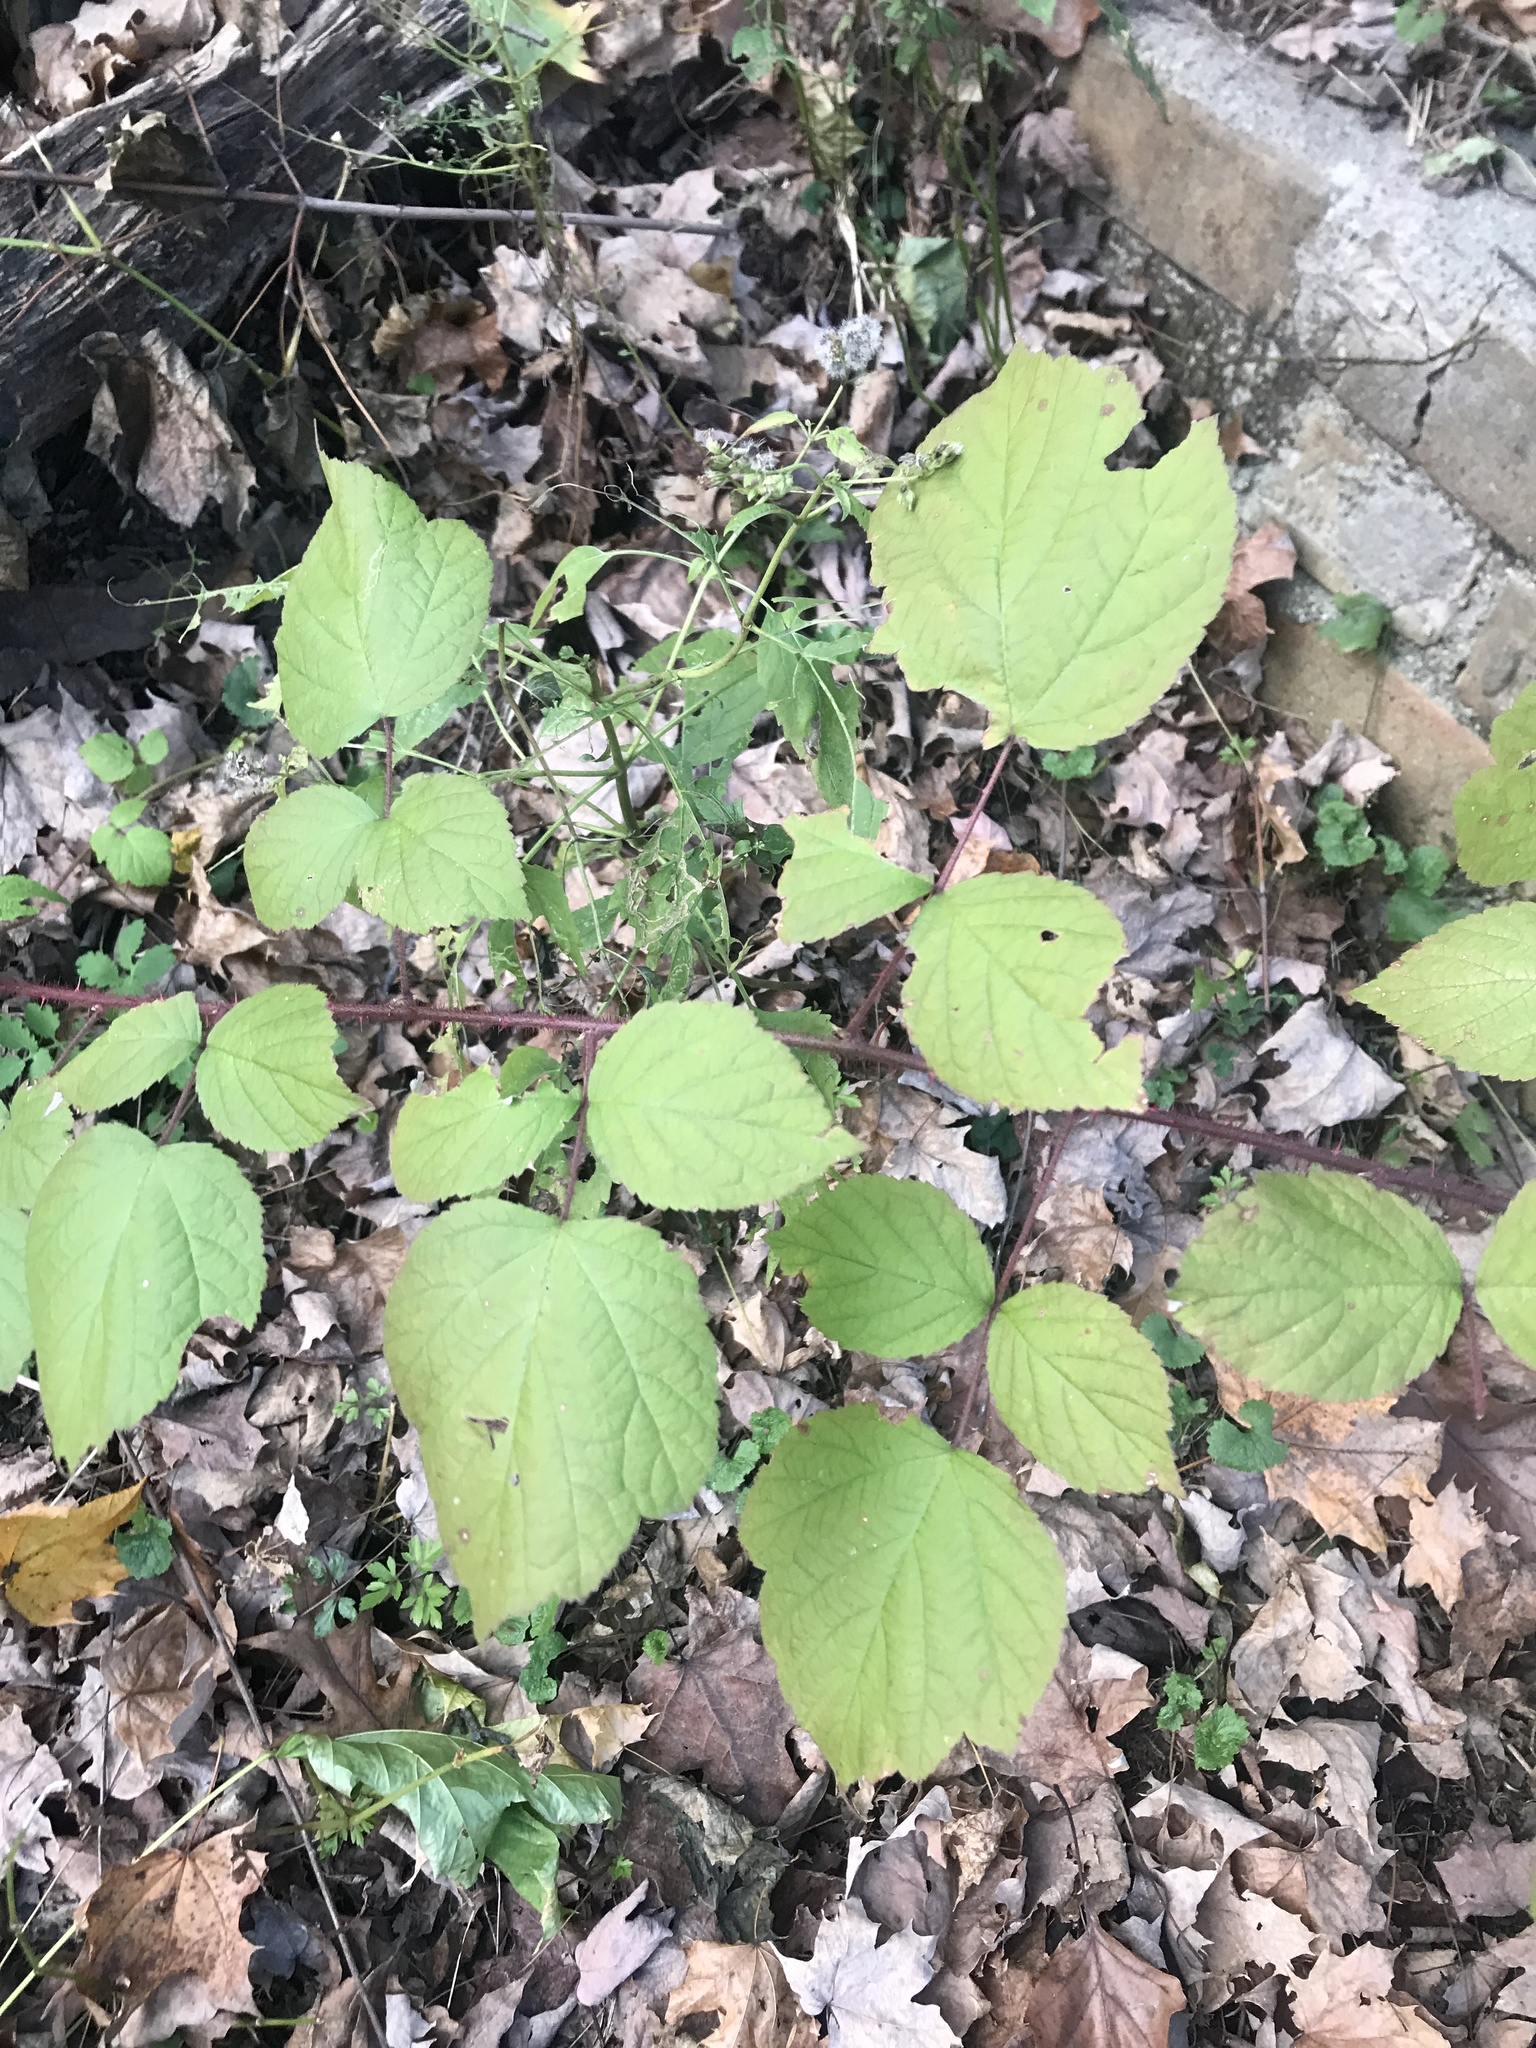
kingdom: Plantae
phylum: Tracheophyta
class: Magnoliopsida
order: Rosales
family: Rosaceae
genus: Rubus
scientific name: Rubus phoenicolasius
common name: Japanese wineberry
